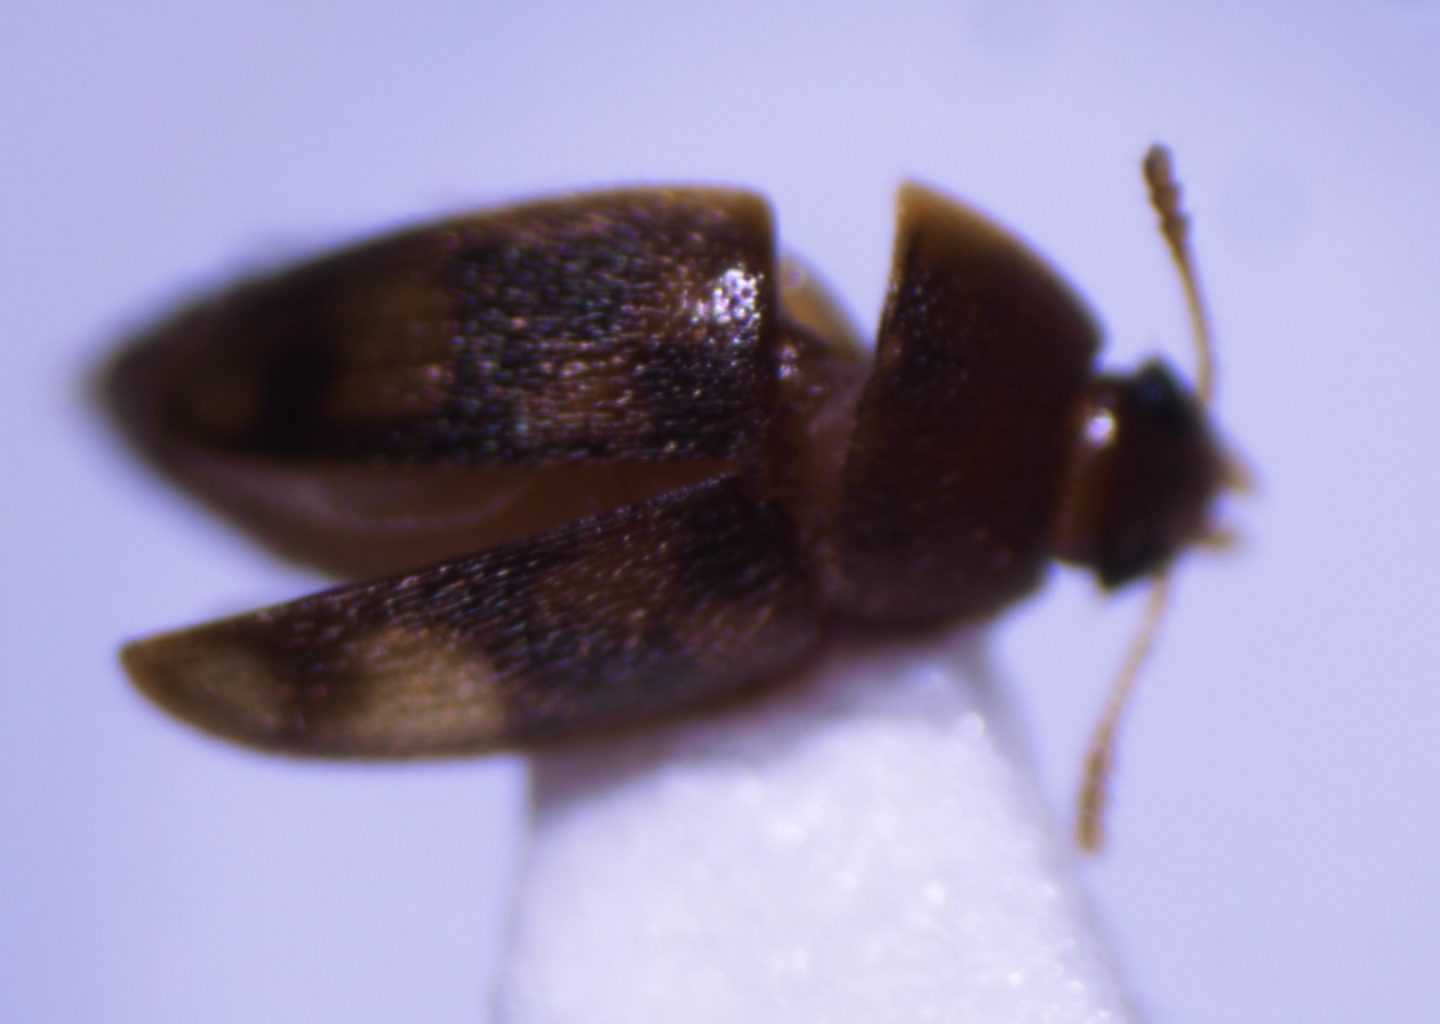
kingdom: Animalia
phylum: Arthropoda
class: Insecta
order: Coleoptera
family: Mycetophagidae
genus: Litargus
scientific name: Litargus vestitus
